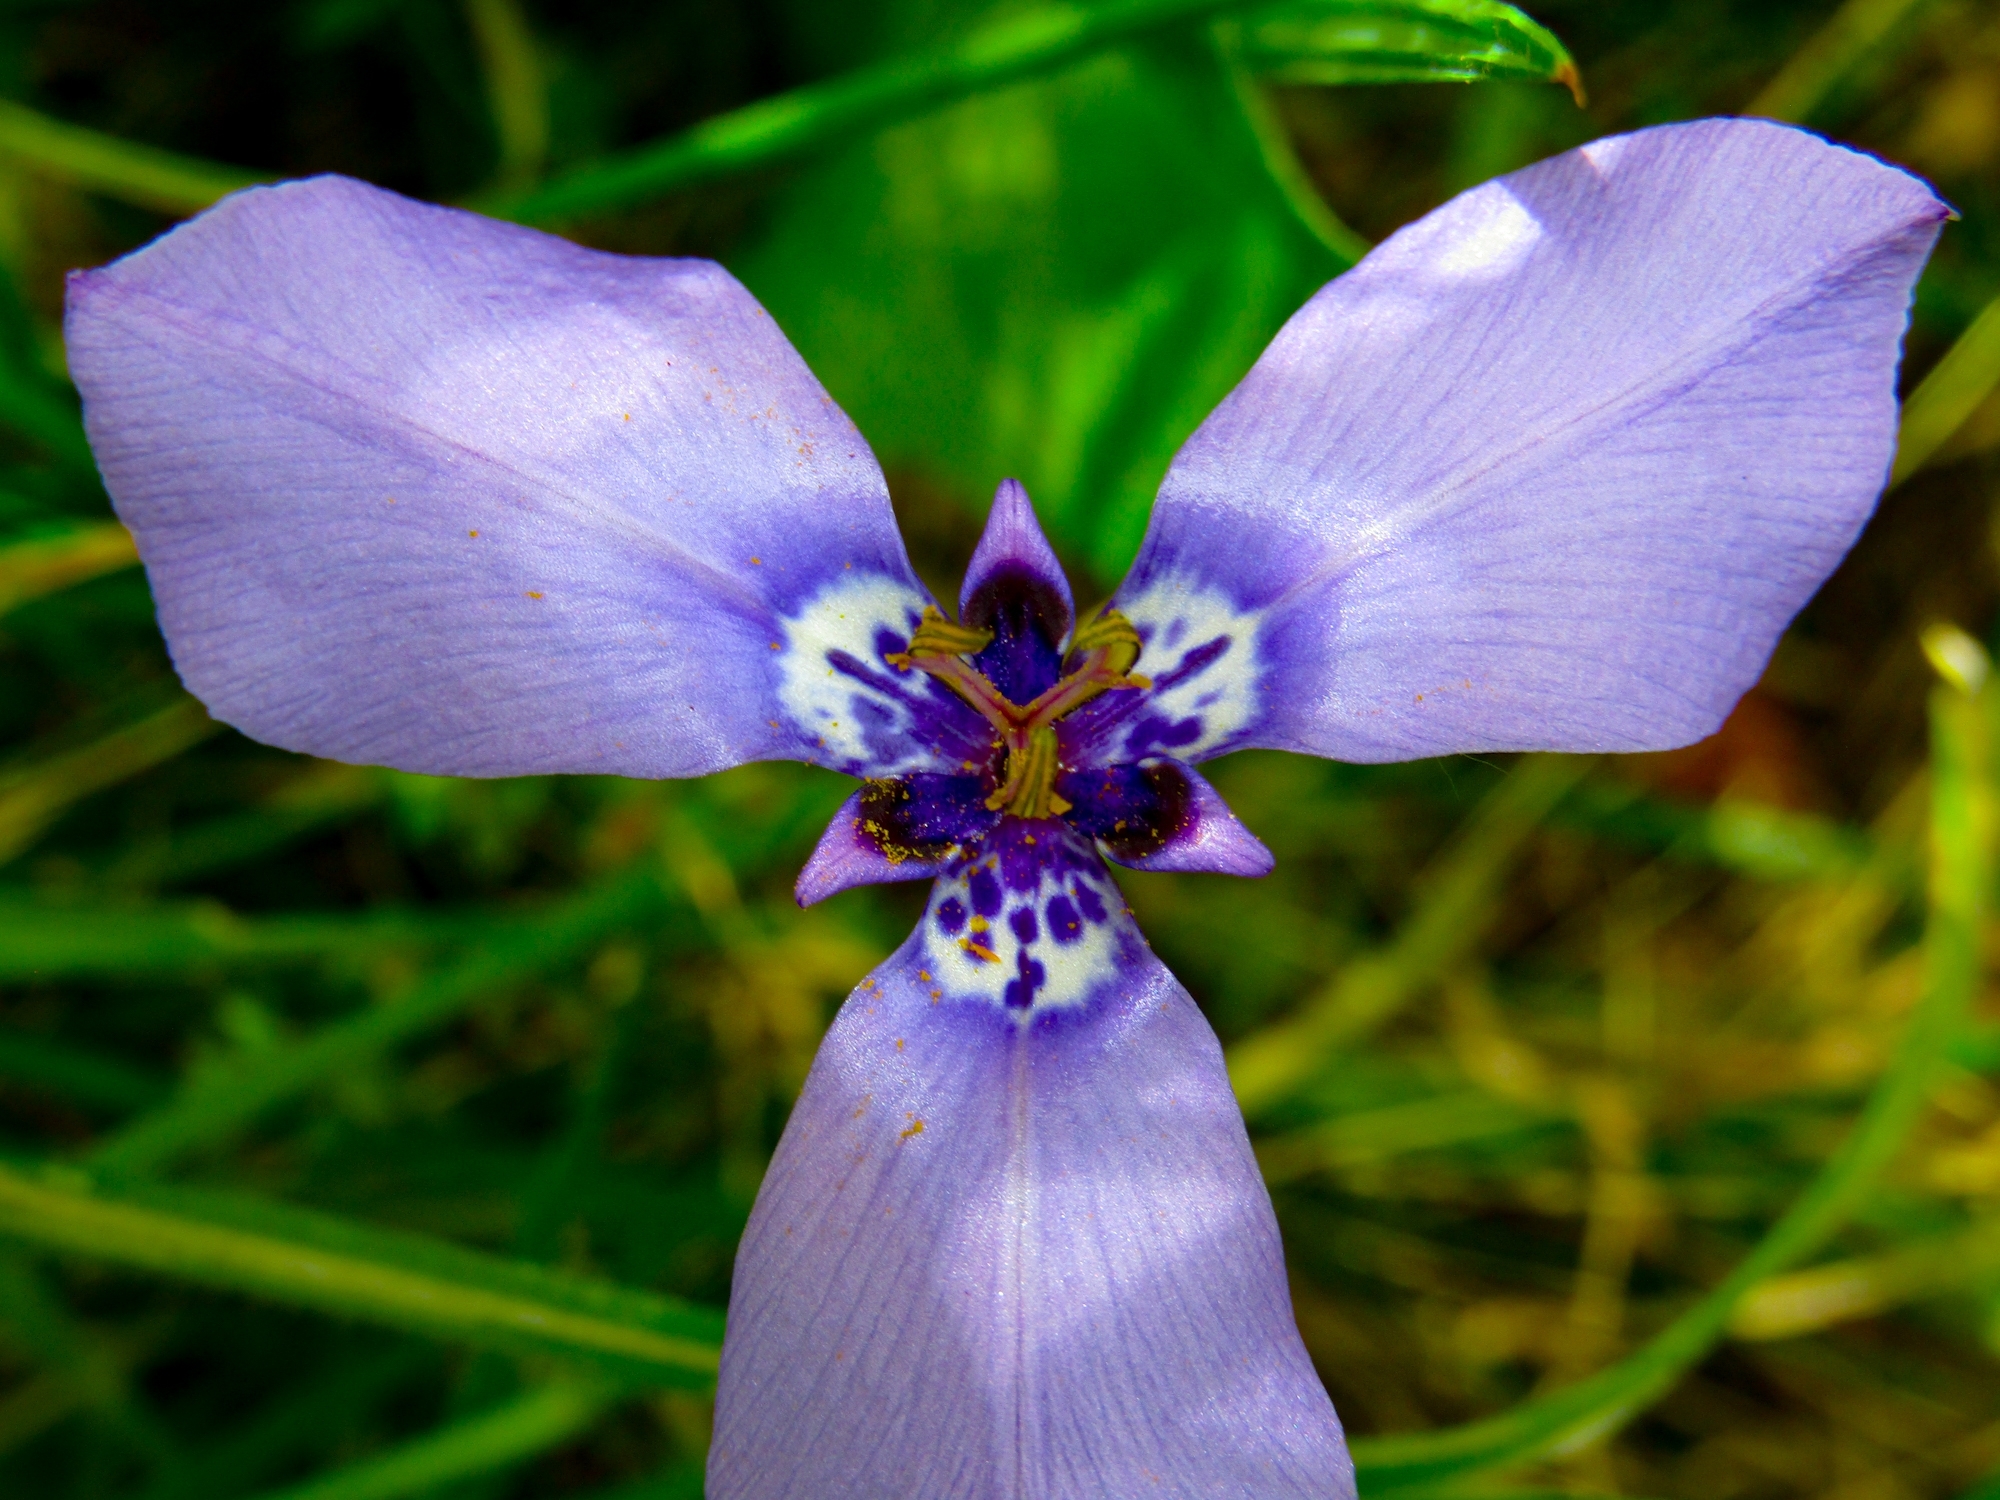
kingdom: Plantae
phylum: Tracheophyta
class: Liliopsida
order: Asparagales
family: Iridaceae
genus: Herbertia
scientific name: Herbertia lahue
